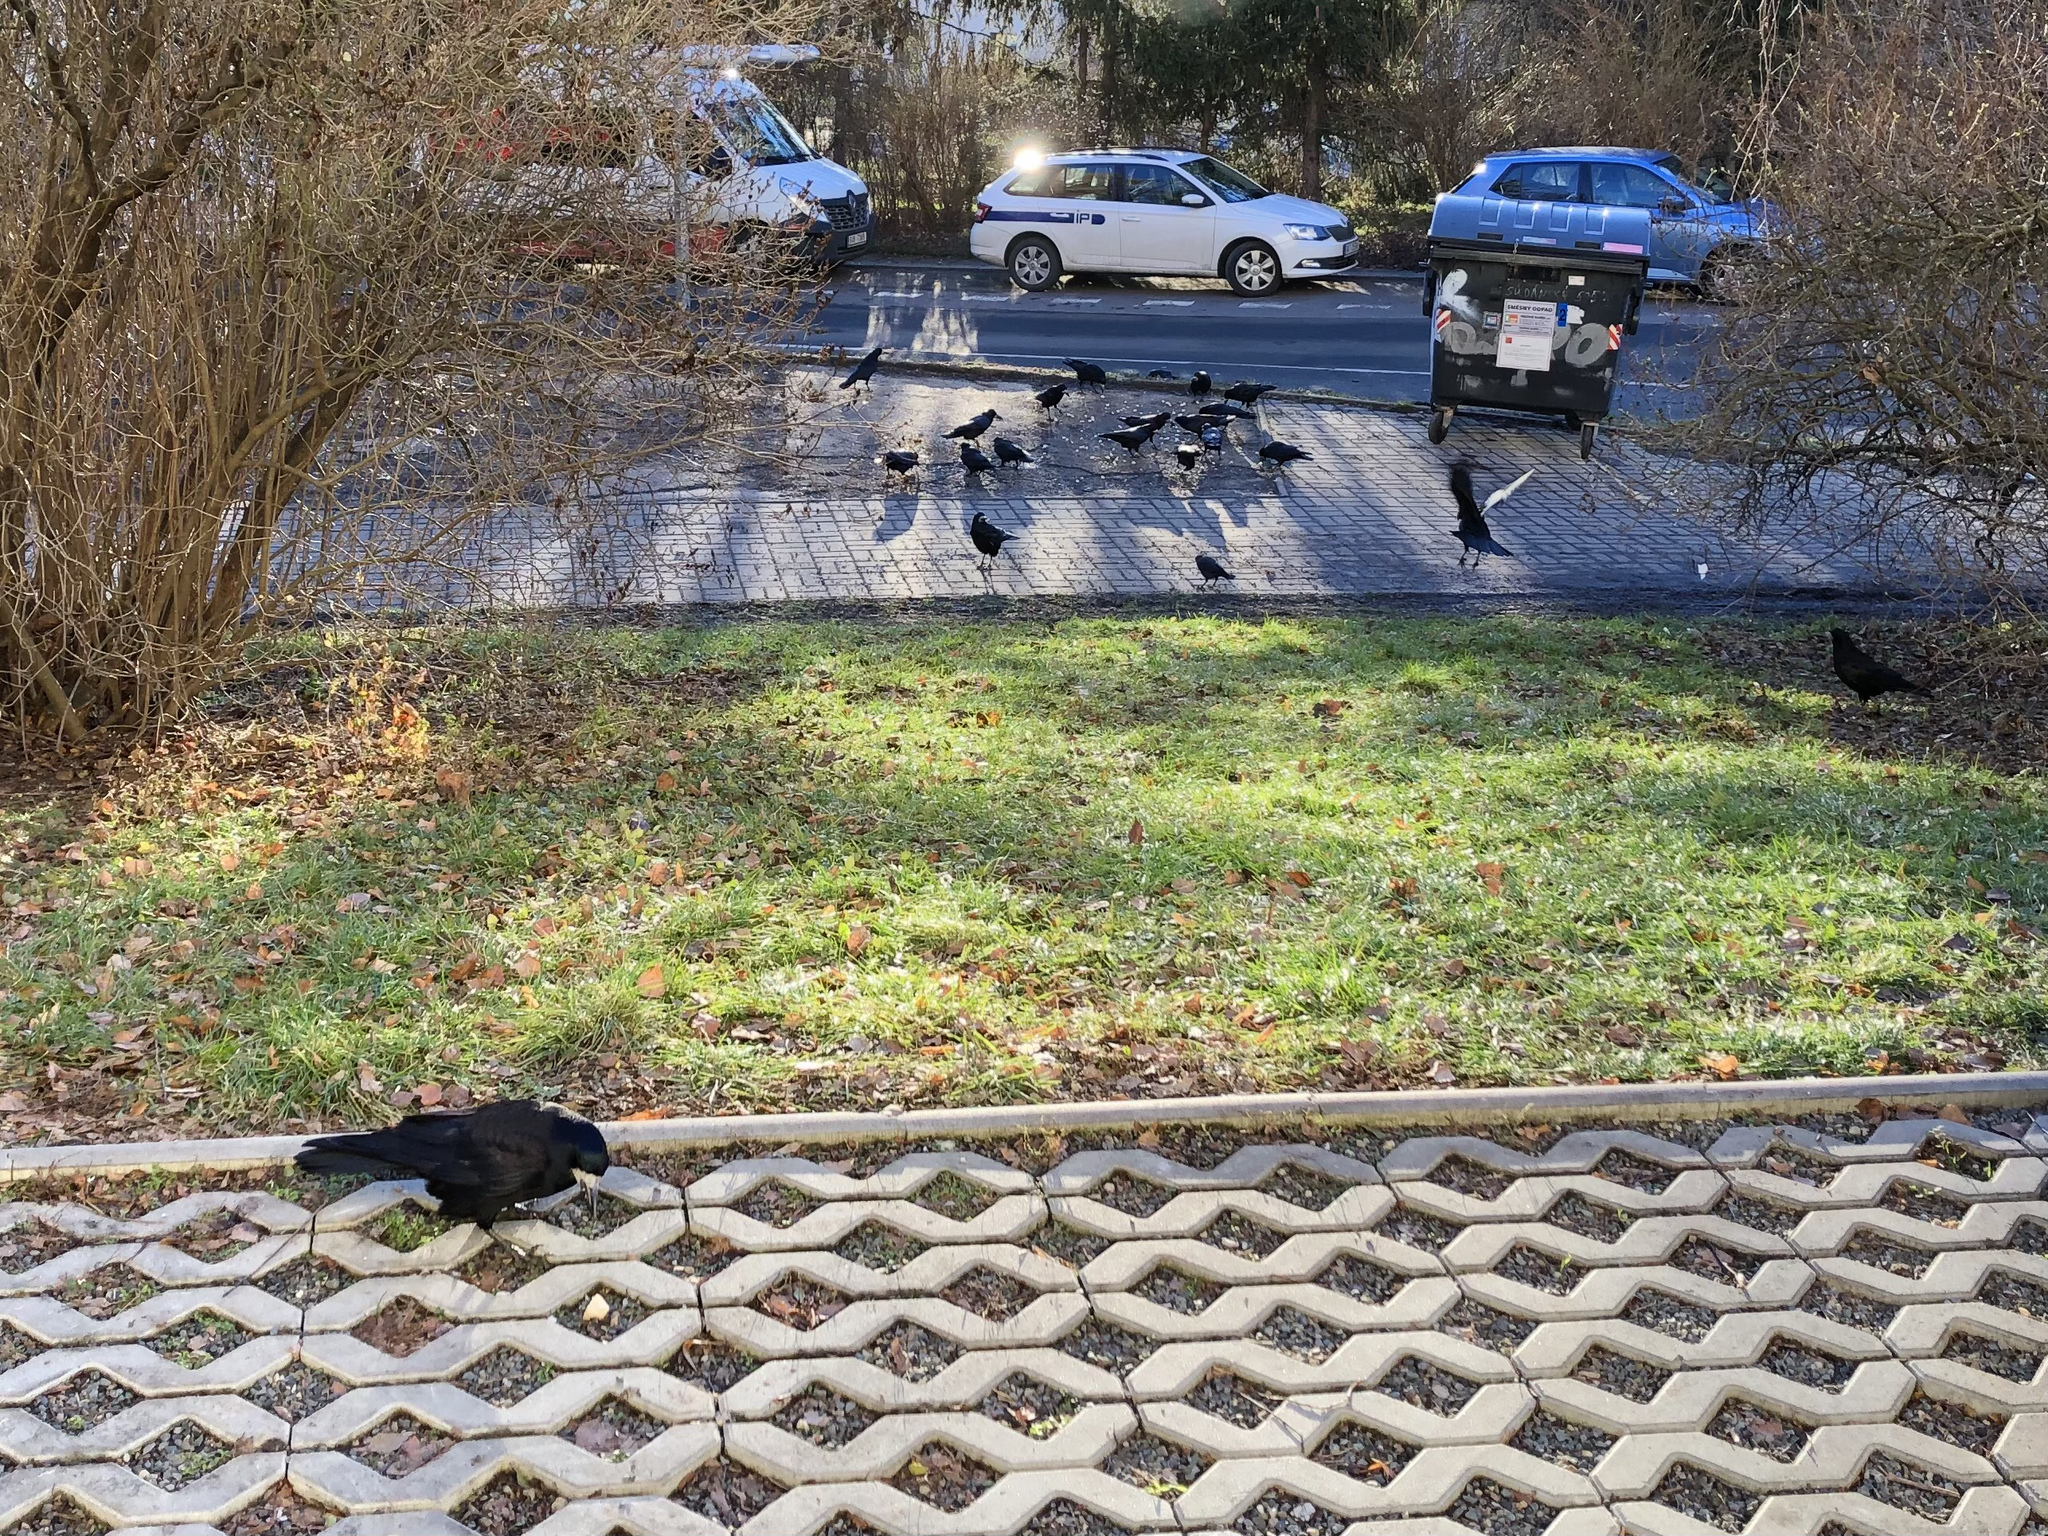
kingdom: Animalia
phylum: Chordata
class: Aves
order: Passeriformes
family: Corvidae
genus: Corvus
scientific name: Corvus frugilegus
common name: Rook
